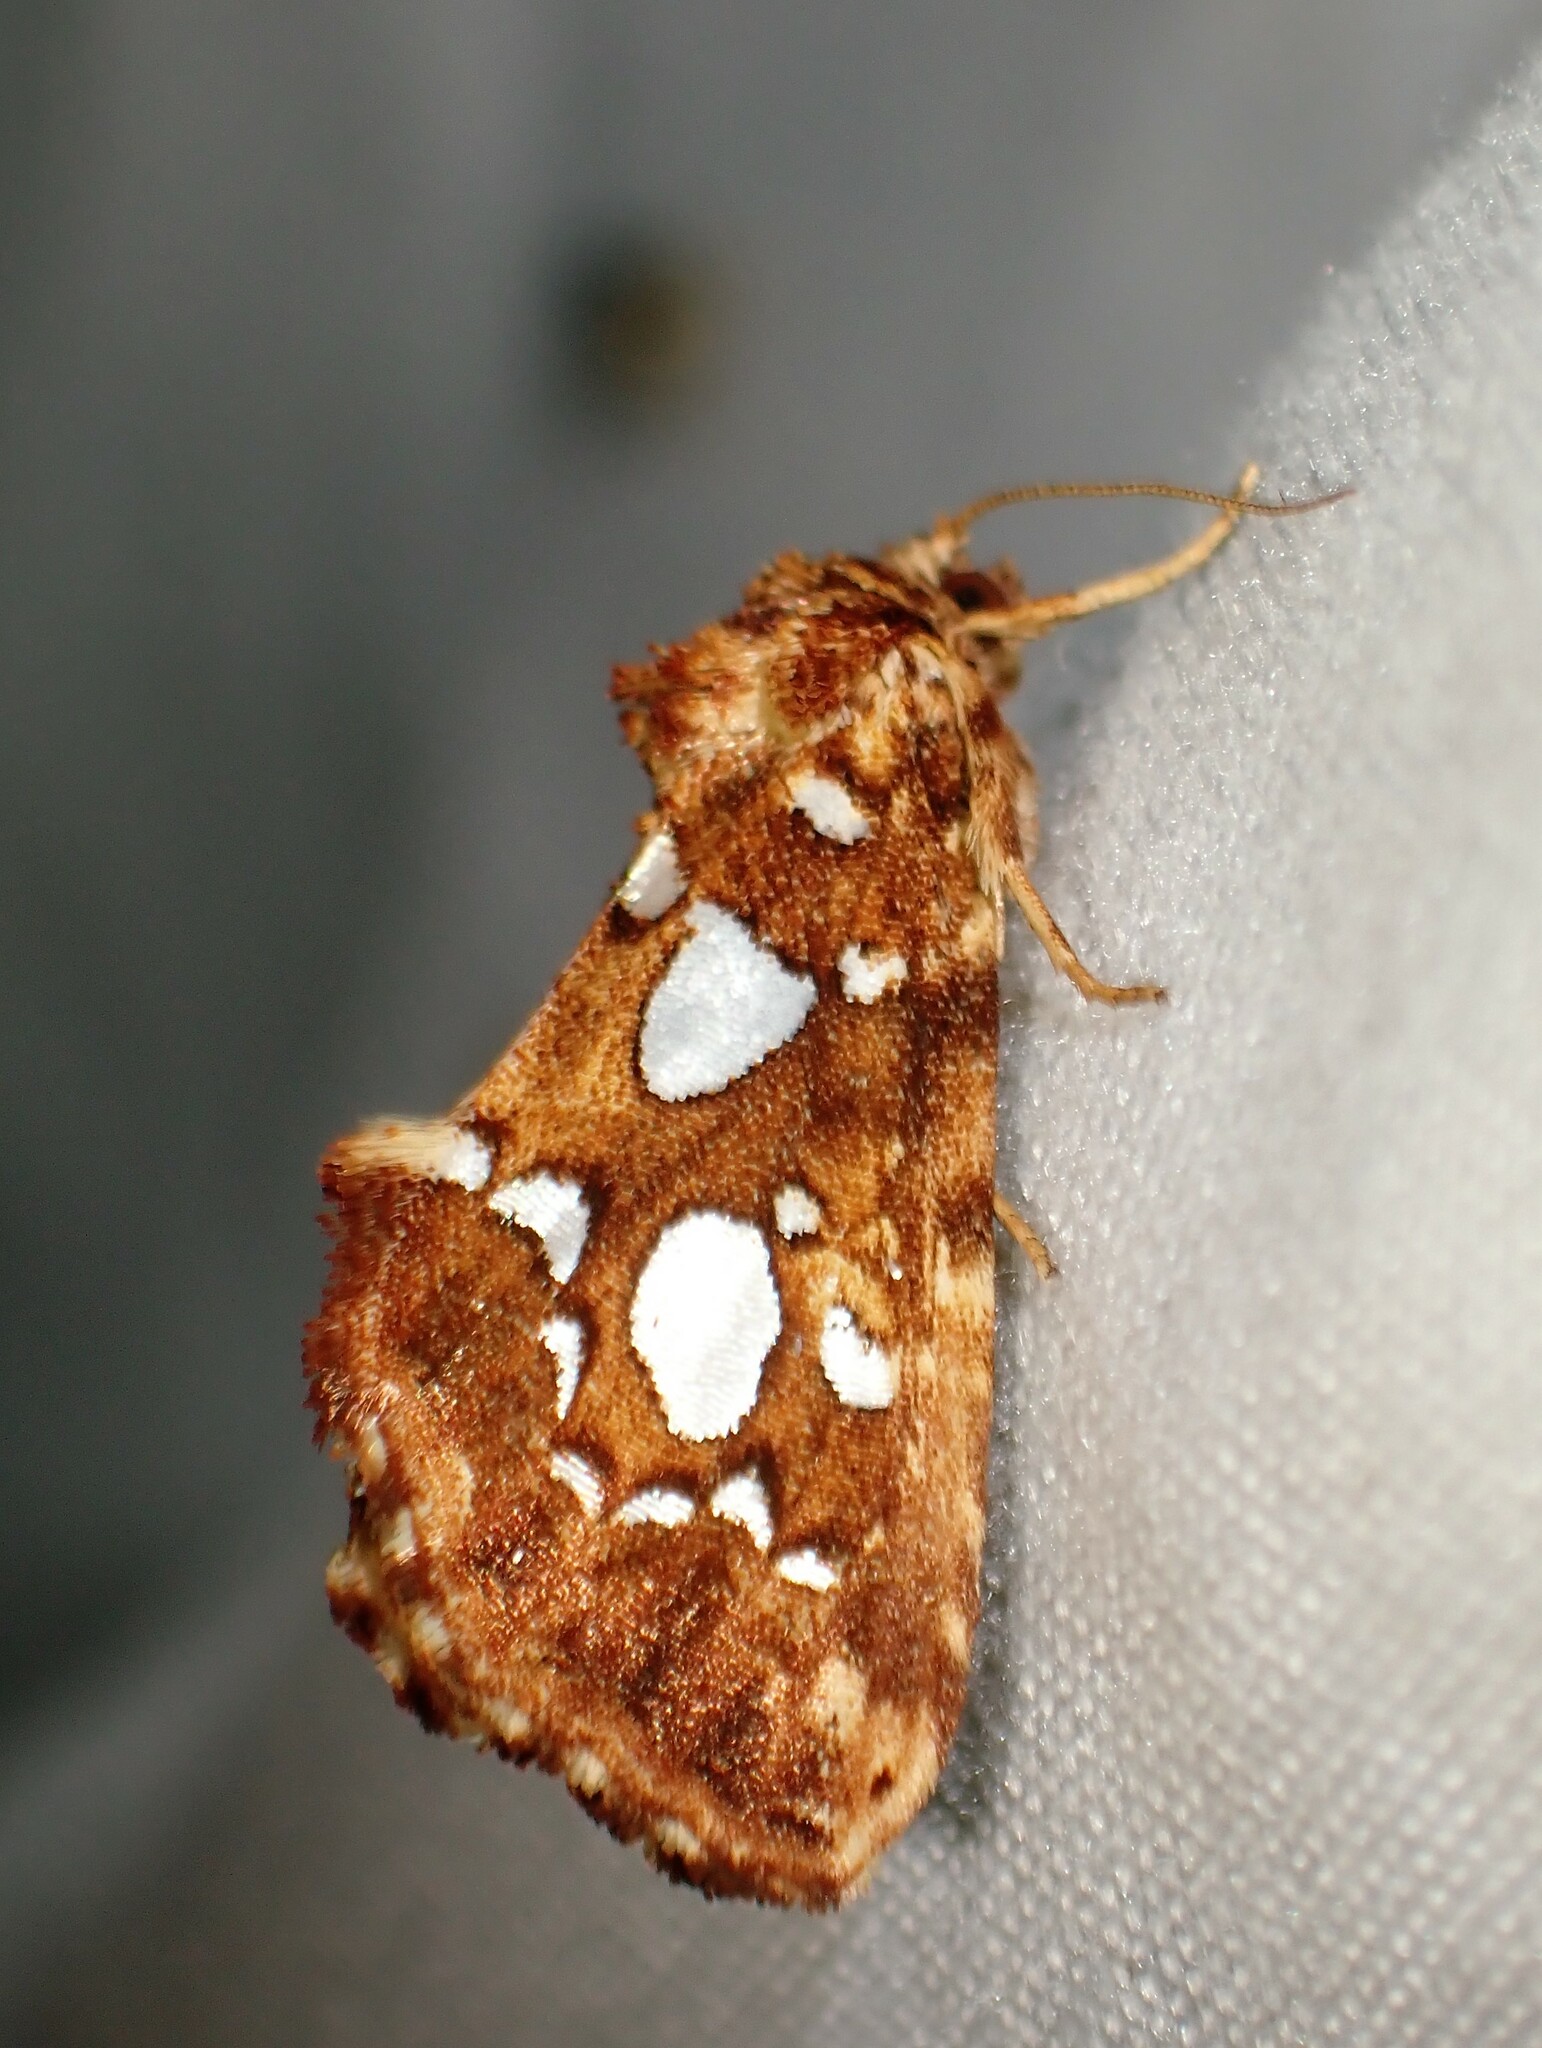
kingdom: Animalia
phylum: Arthropoda
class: Insecta
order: Lepidoptera
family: Noctuidae
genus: Callopistria
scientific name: Callopistria cordata
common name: Silver-spotted fern moth
